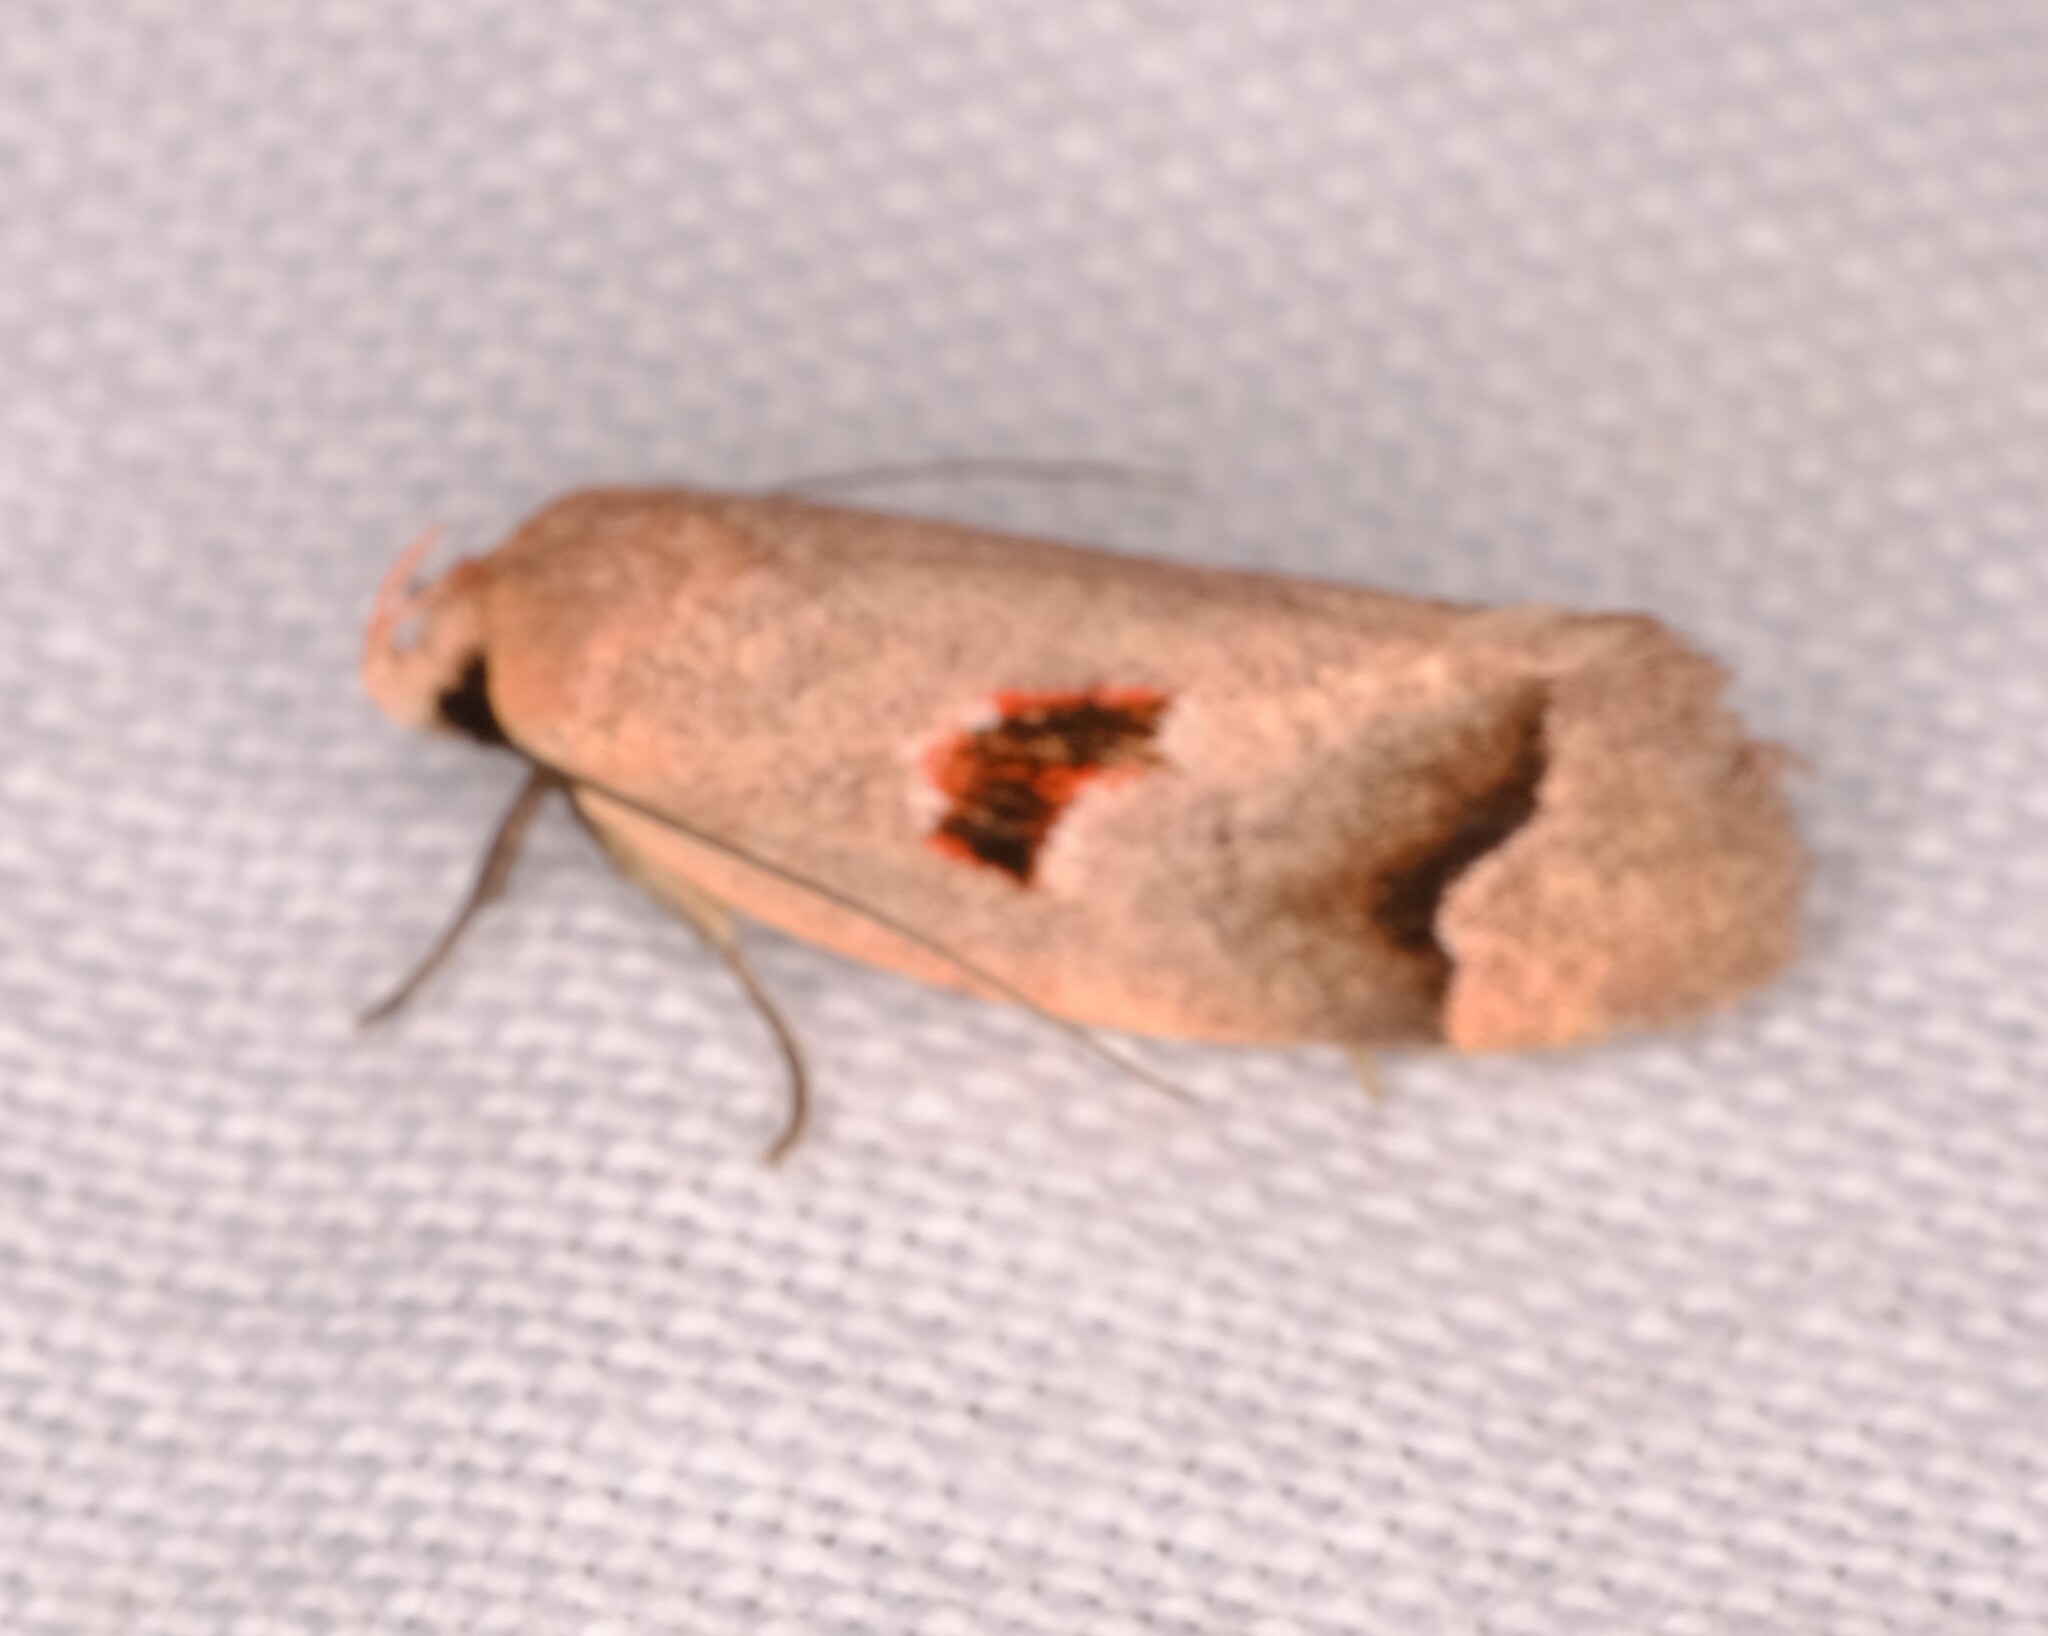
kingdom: Animalia
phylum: Arthropoda
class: Insecta
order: Lepidoptera
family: Oecophoridae
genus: Acanthodela
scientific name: Acanthodela erythrosema
